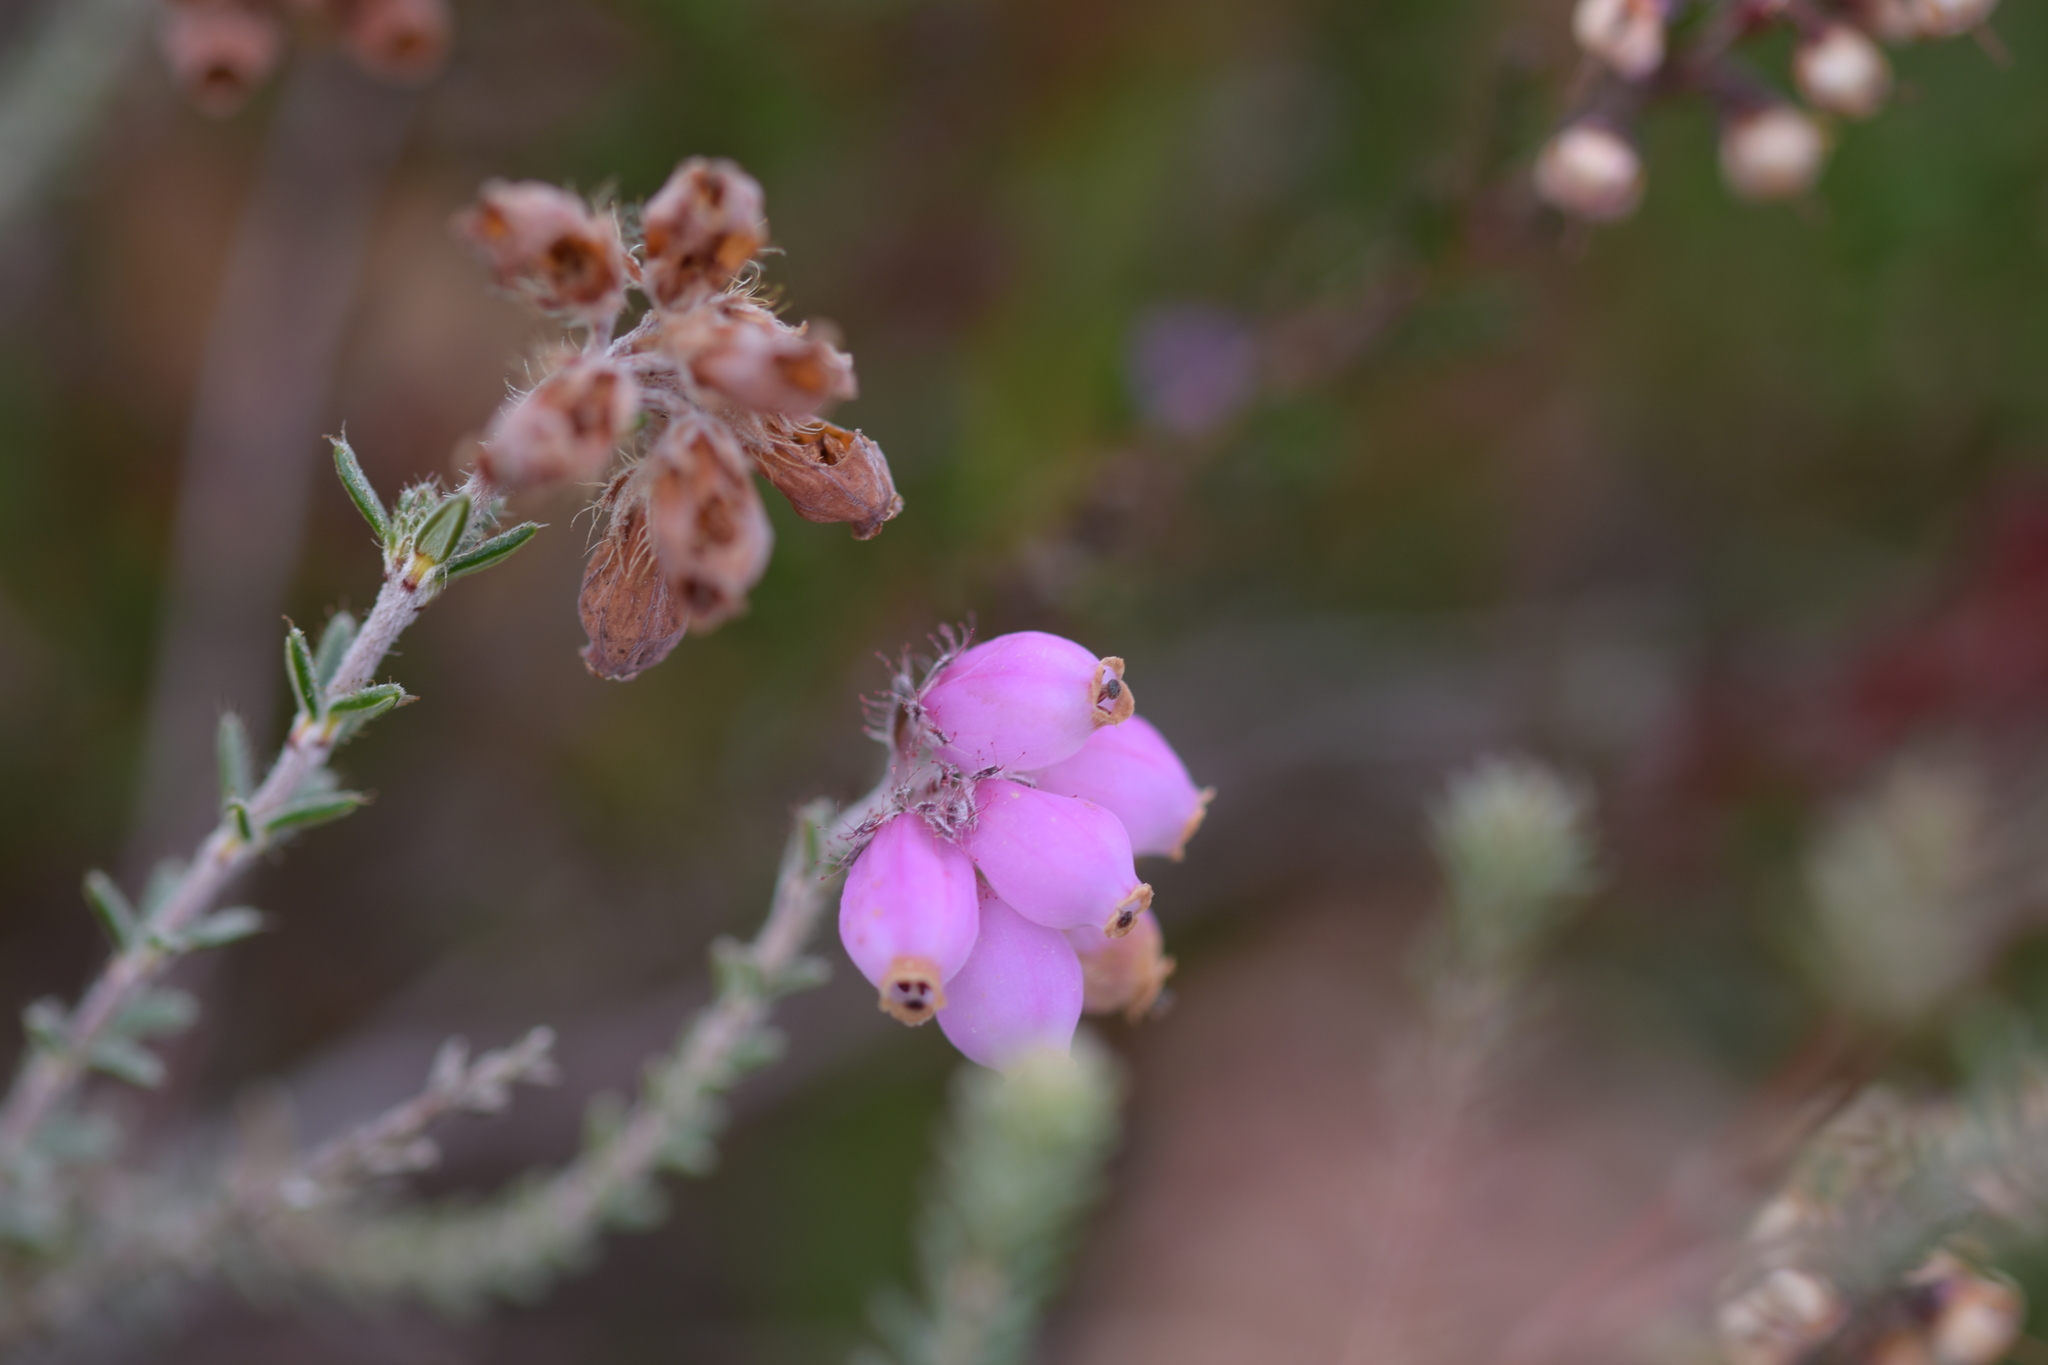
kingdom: Plantae
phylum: Tracheophyta
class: Magnoliopsida
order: Ericales
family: Ericaceae
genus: Erica
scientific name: Erica tetralix
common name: Cross-leaved heath
